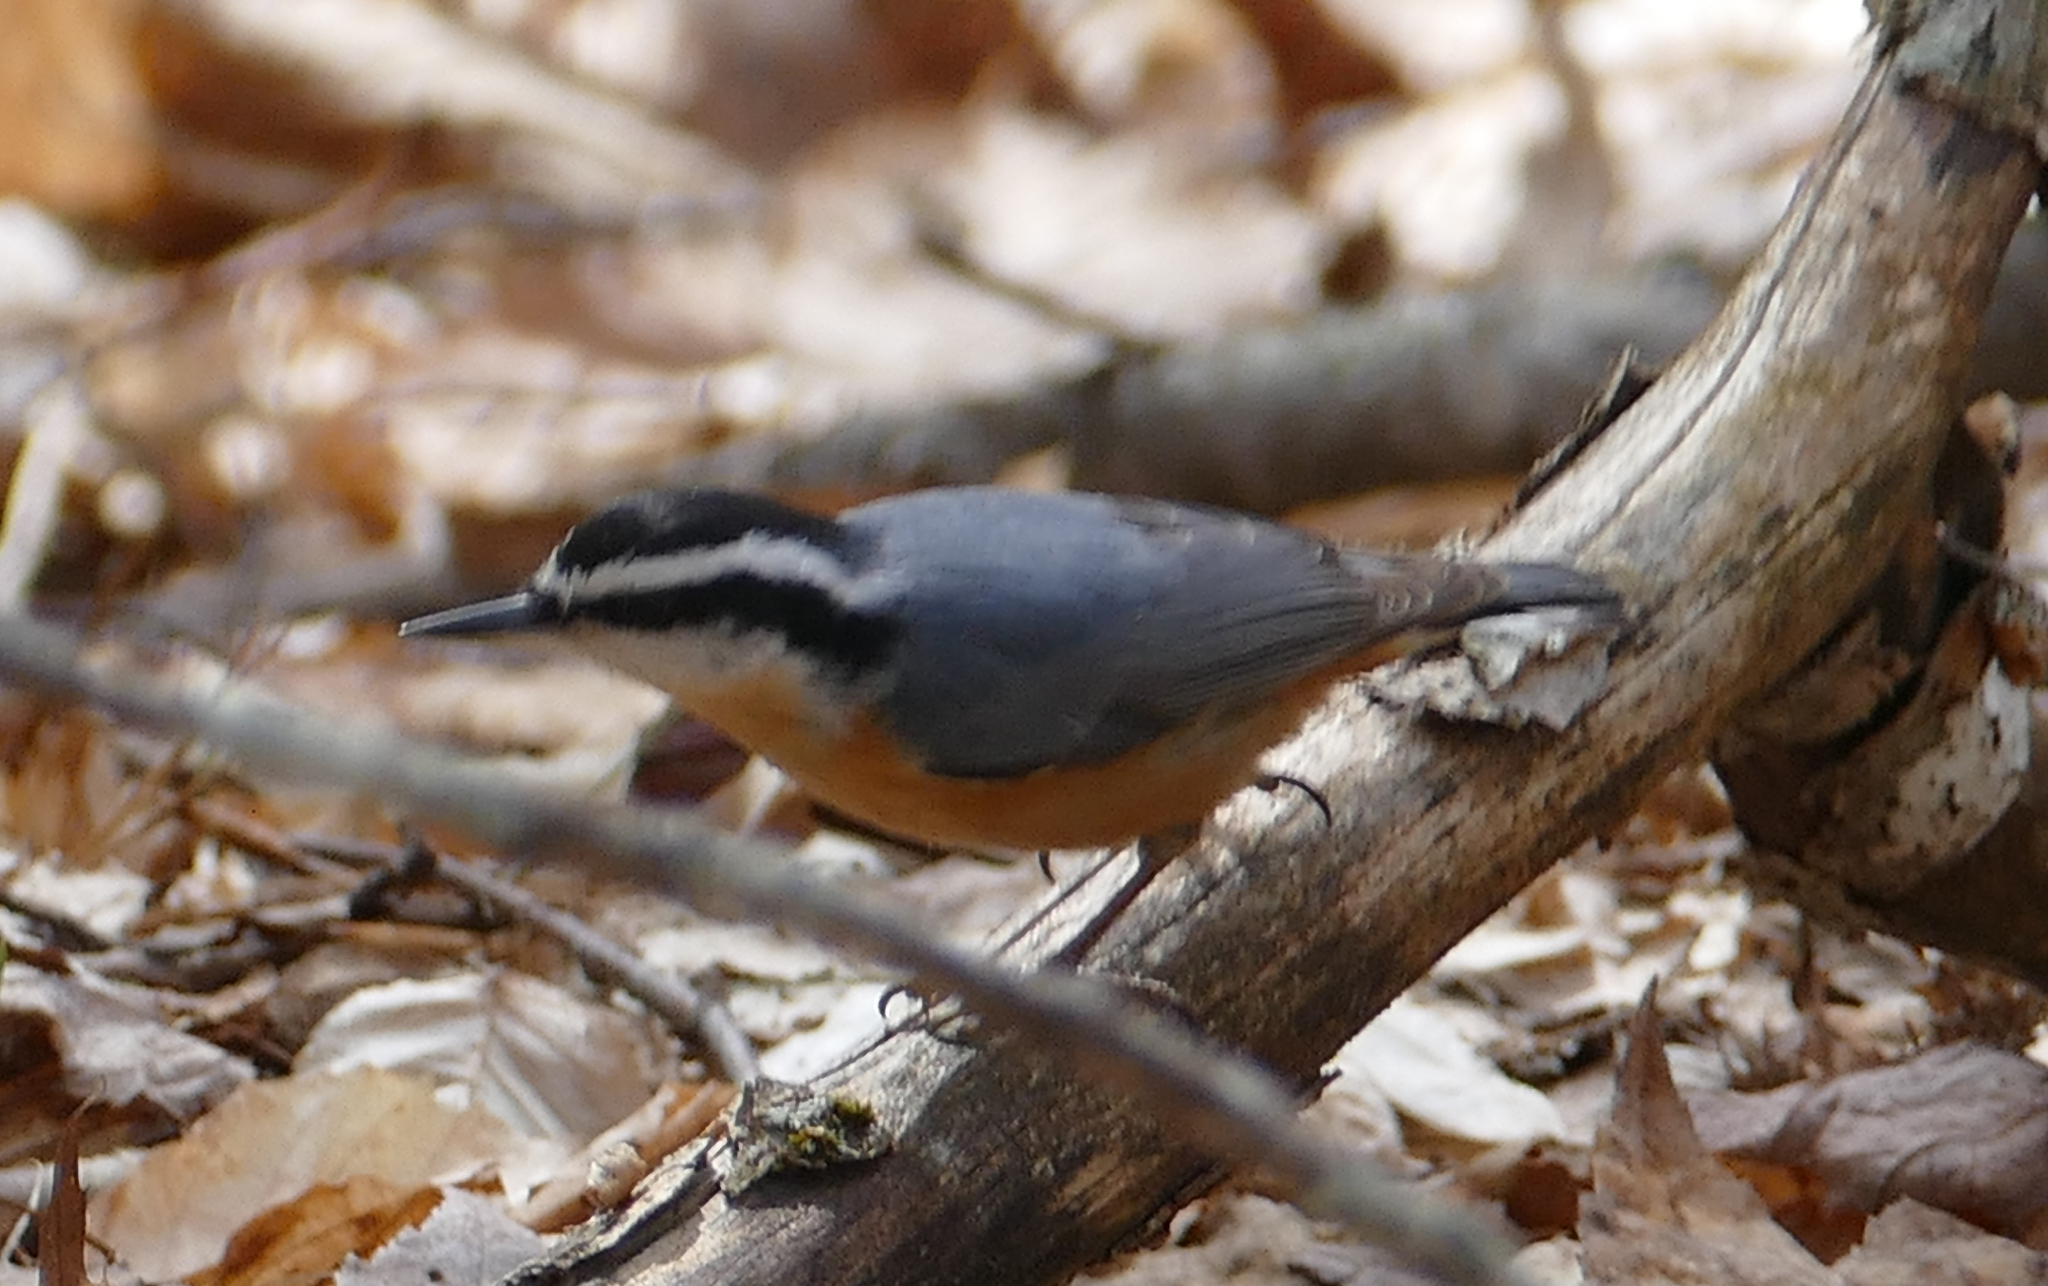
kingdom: Animalia
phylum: Chordata
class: Aves
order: Passeriformes
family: Sittidae
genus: Sitta
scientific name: Sitta canadensis
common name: Red-breasted nuthatch
